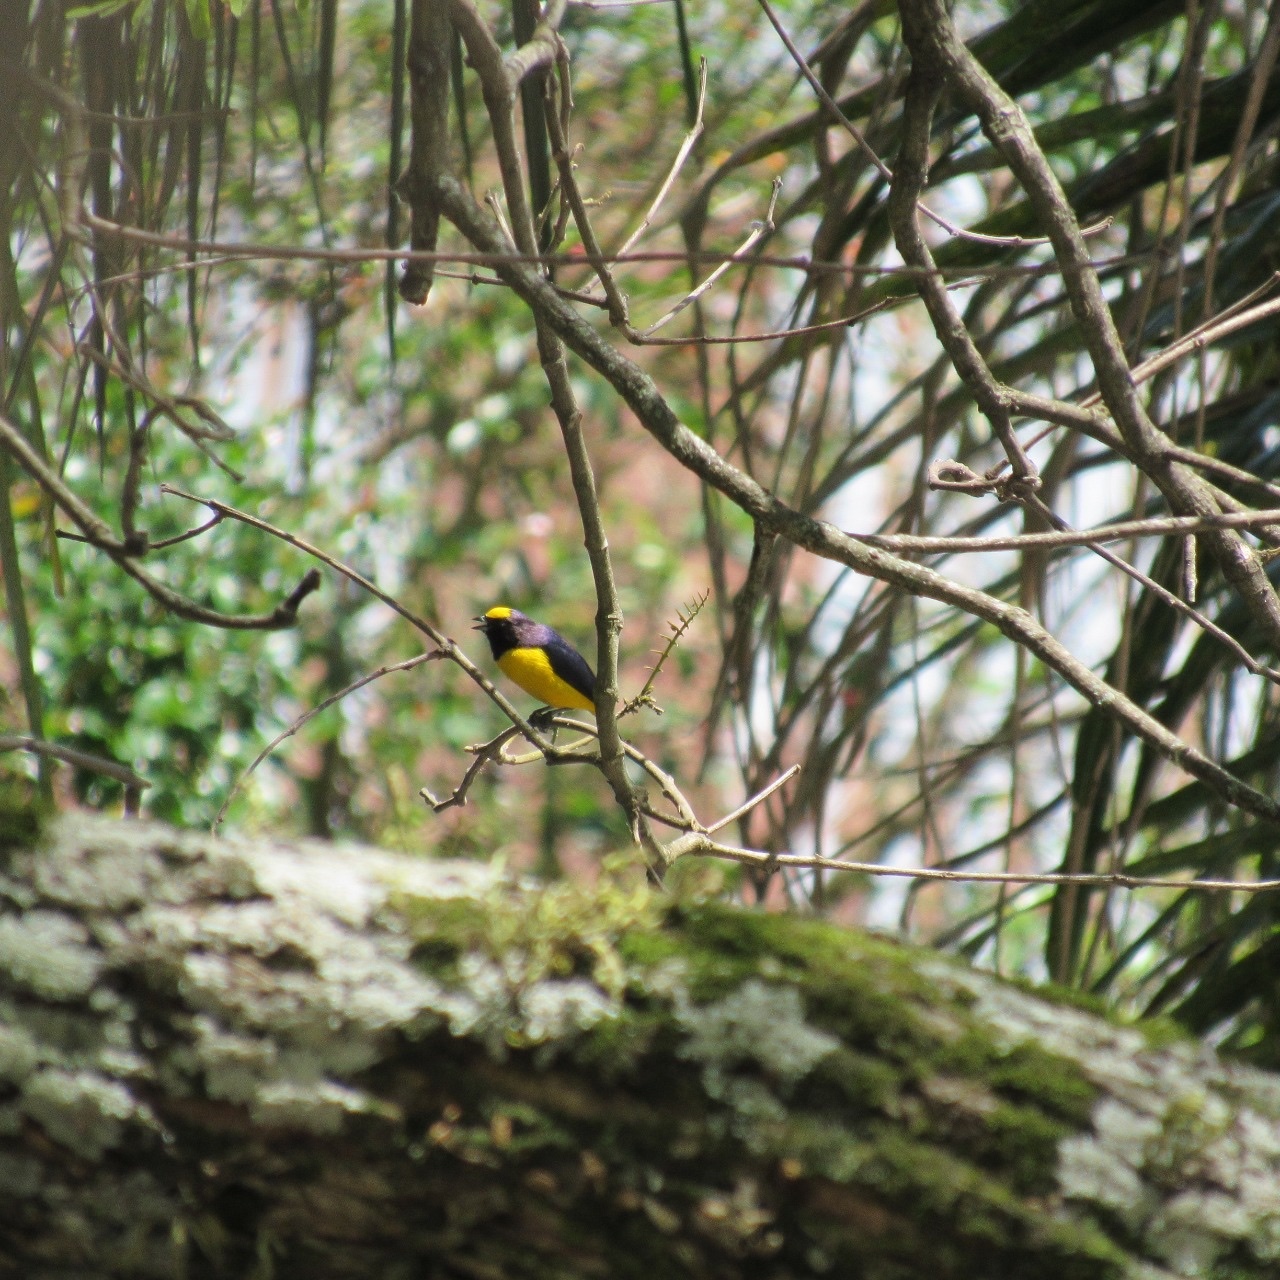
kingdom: Animalia
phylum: Chordata
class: Aves
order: Passeriformes
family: Fringillidae
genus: Euphonia
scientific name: Euphonia chlorotica
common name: Purple-throated euphonia
